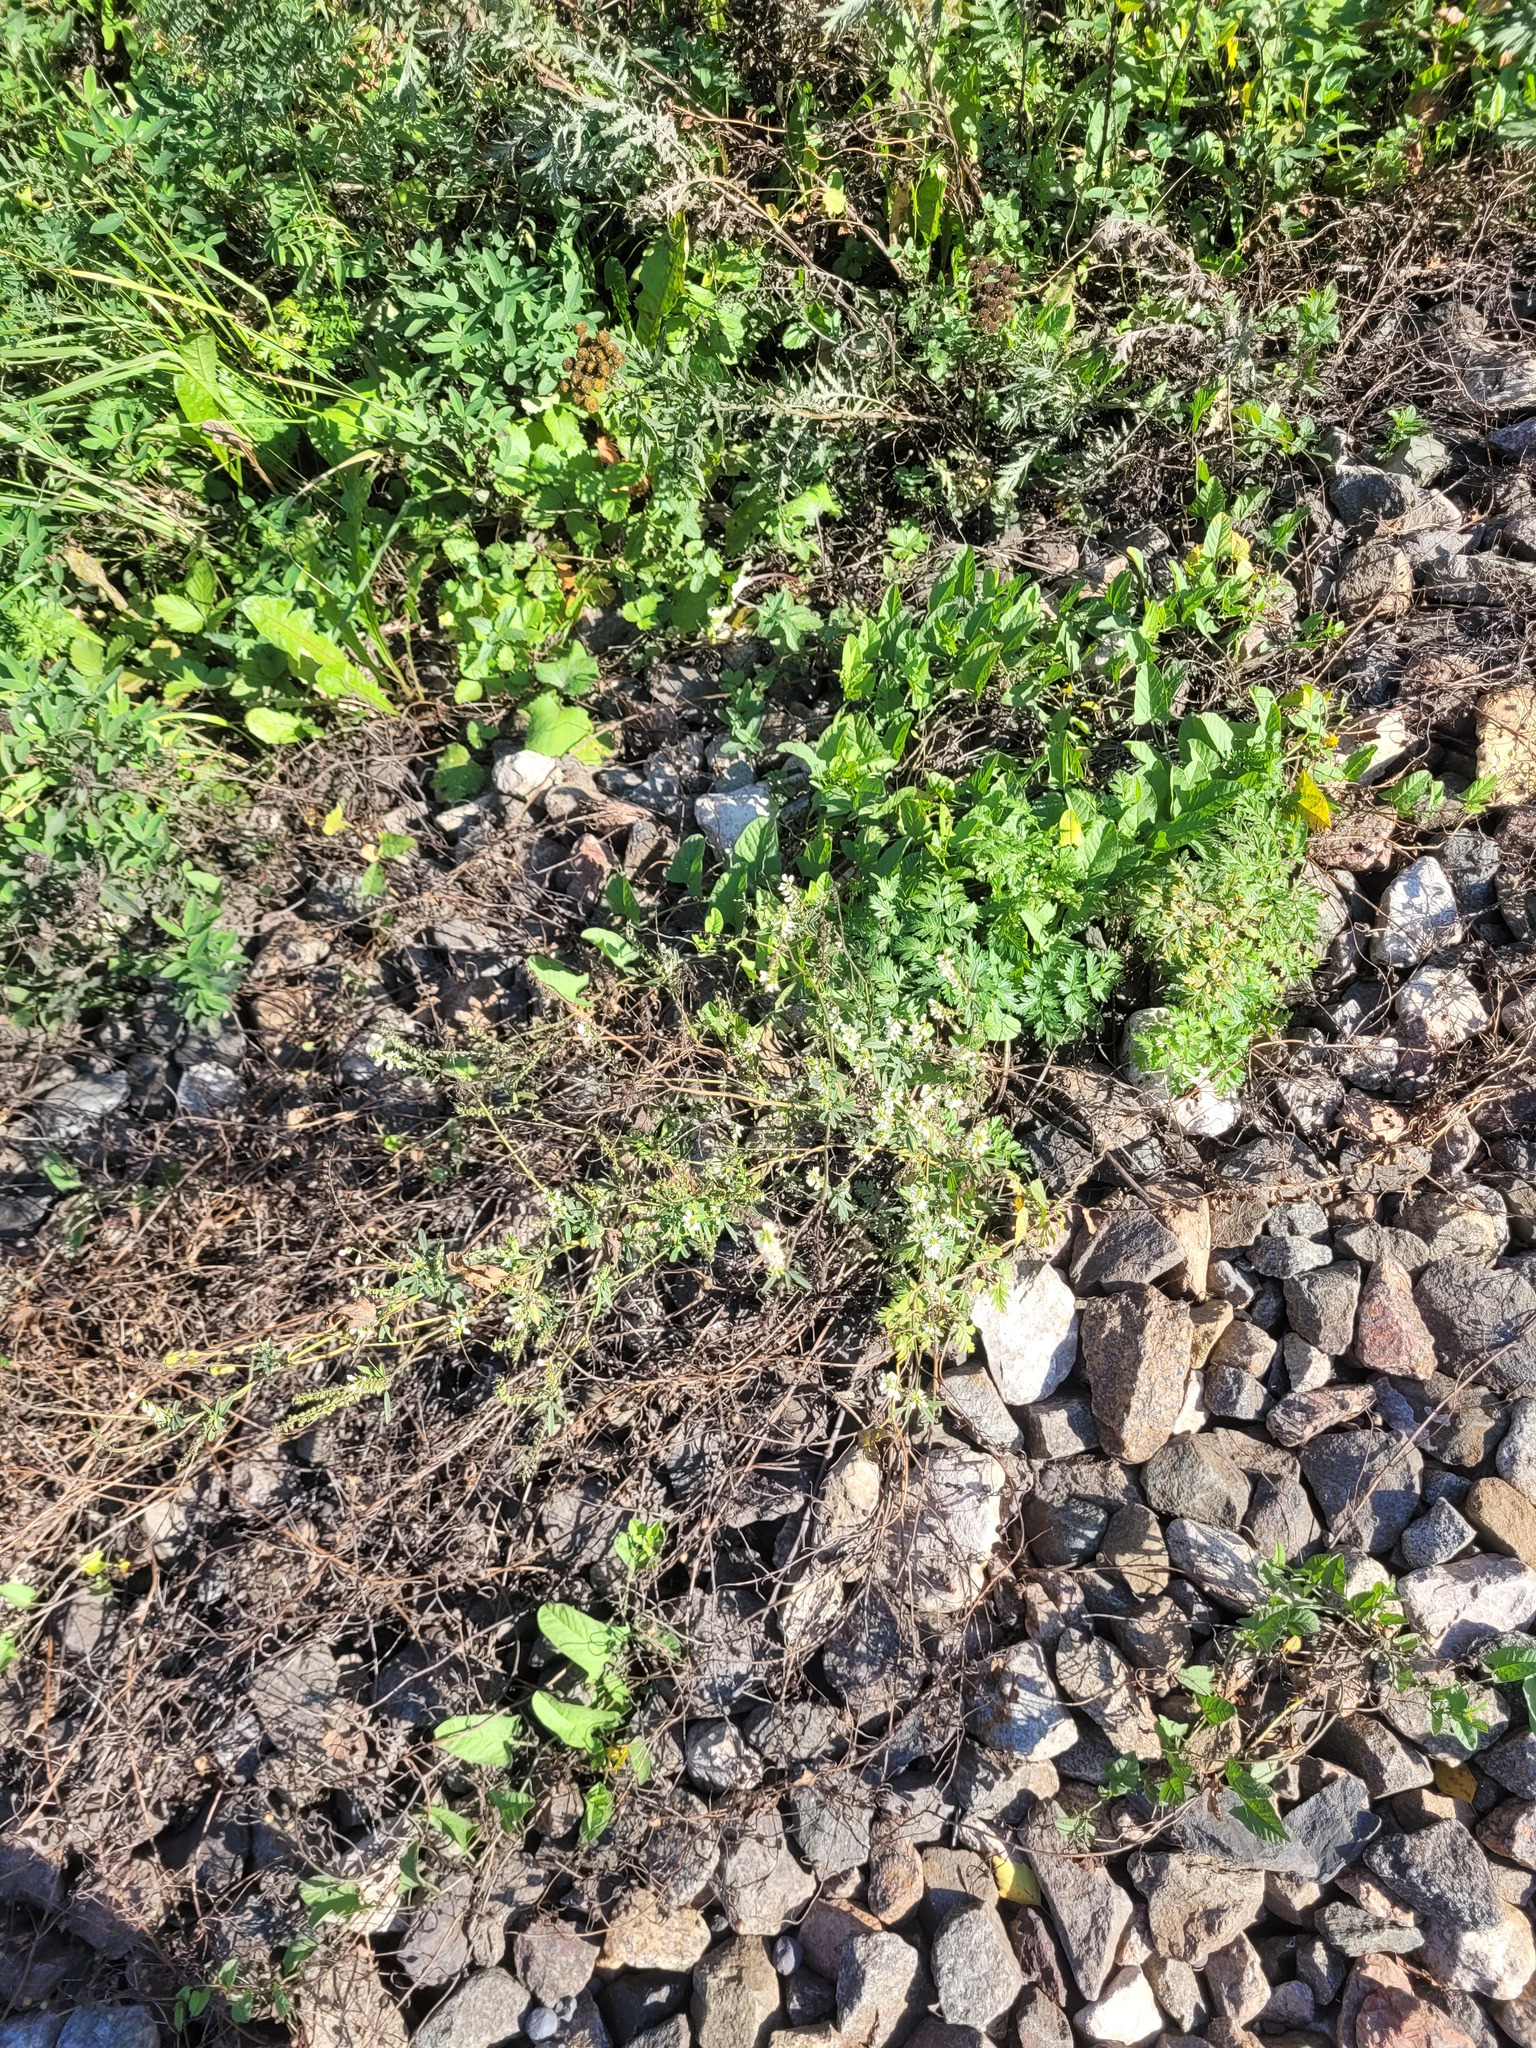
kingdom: Plantae
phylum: Tracheophyta
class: Magnoliopsida
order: Fabales
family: Fabaceae
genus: Melilotus
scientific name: Melilotus albus
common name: White melilot
